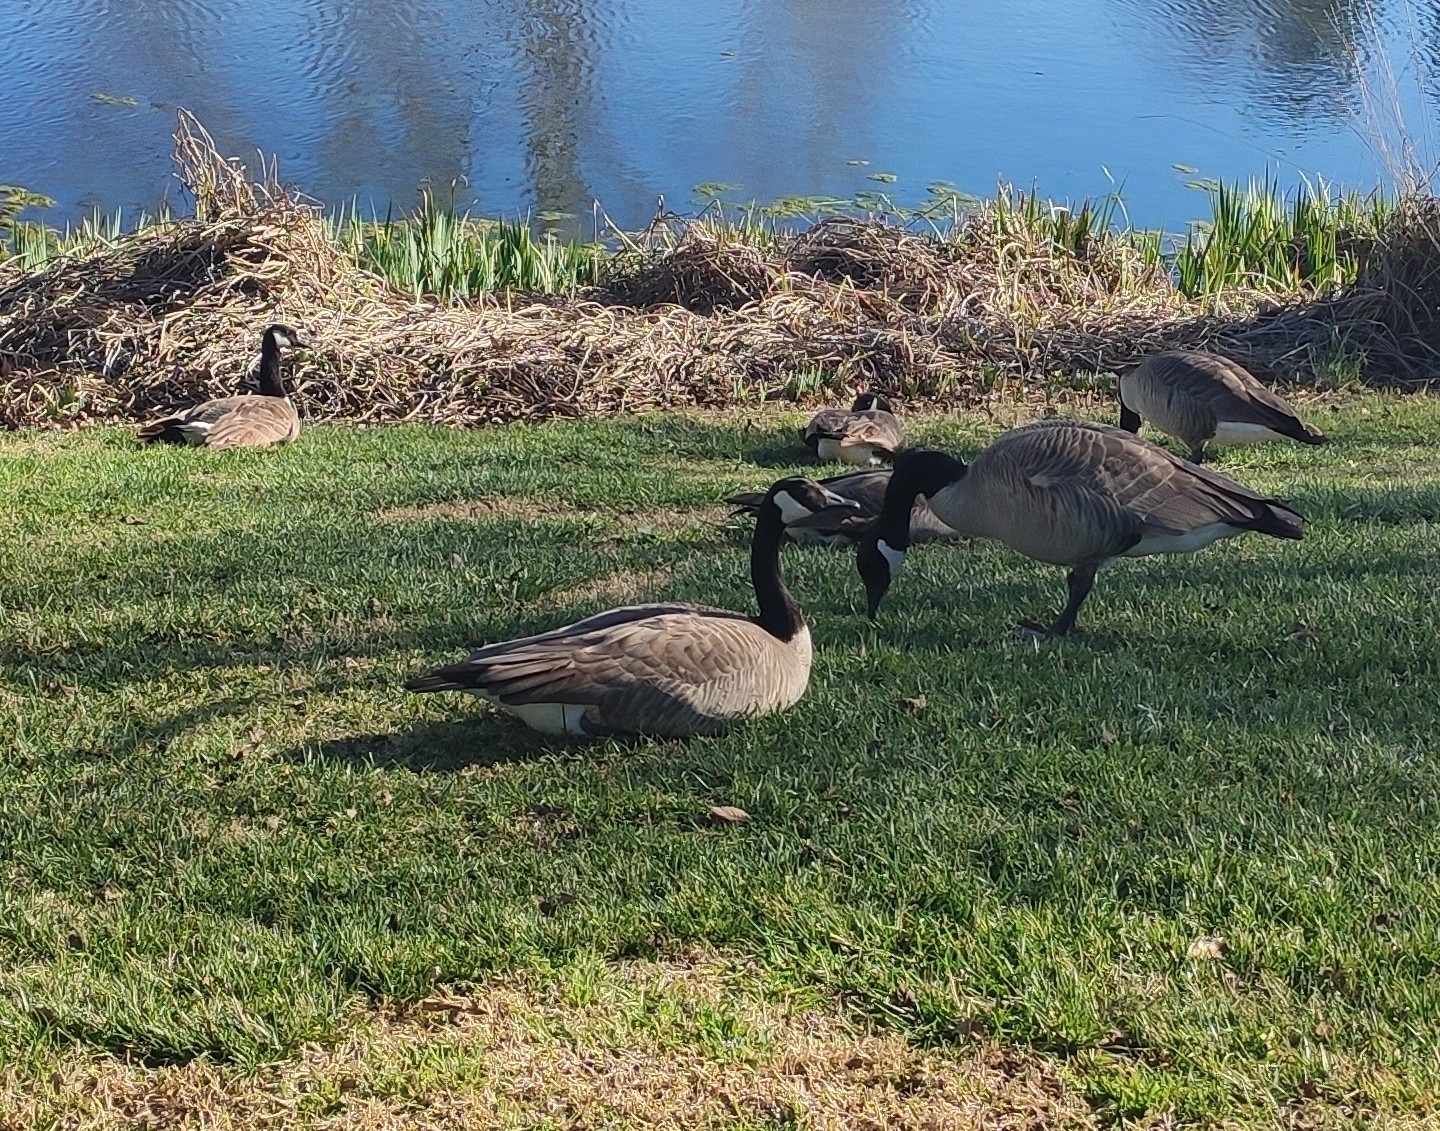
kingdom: Animalia
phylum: Chordata
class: Aves
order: Anseriformes
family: Anatidae
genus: Branta
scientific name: Branta canadensis
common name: Canada goose
